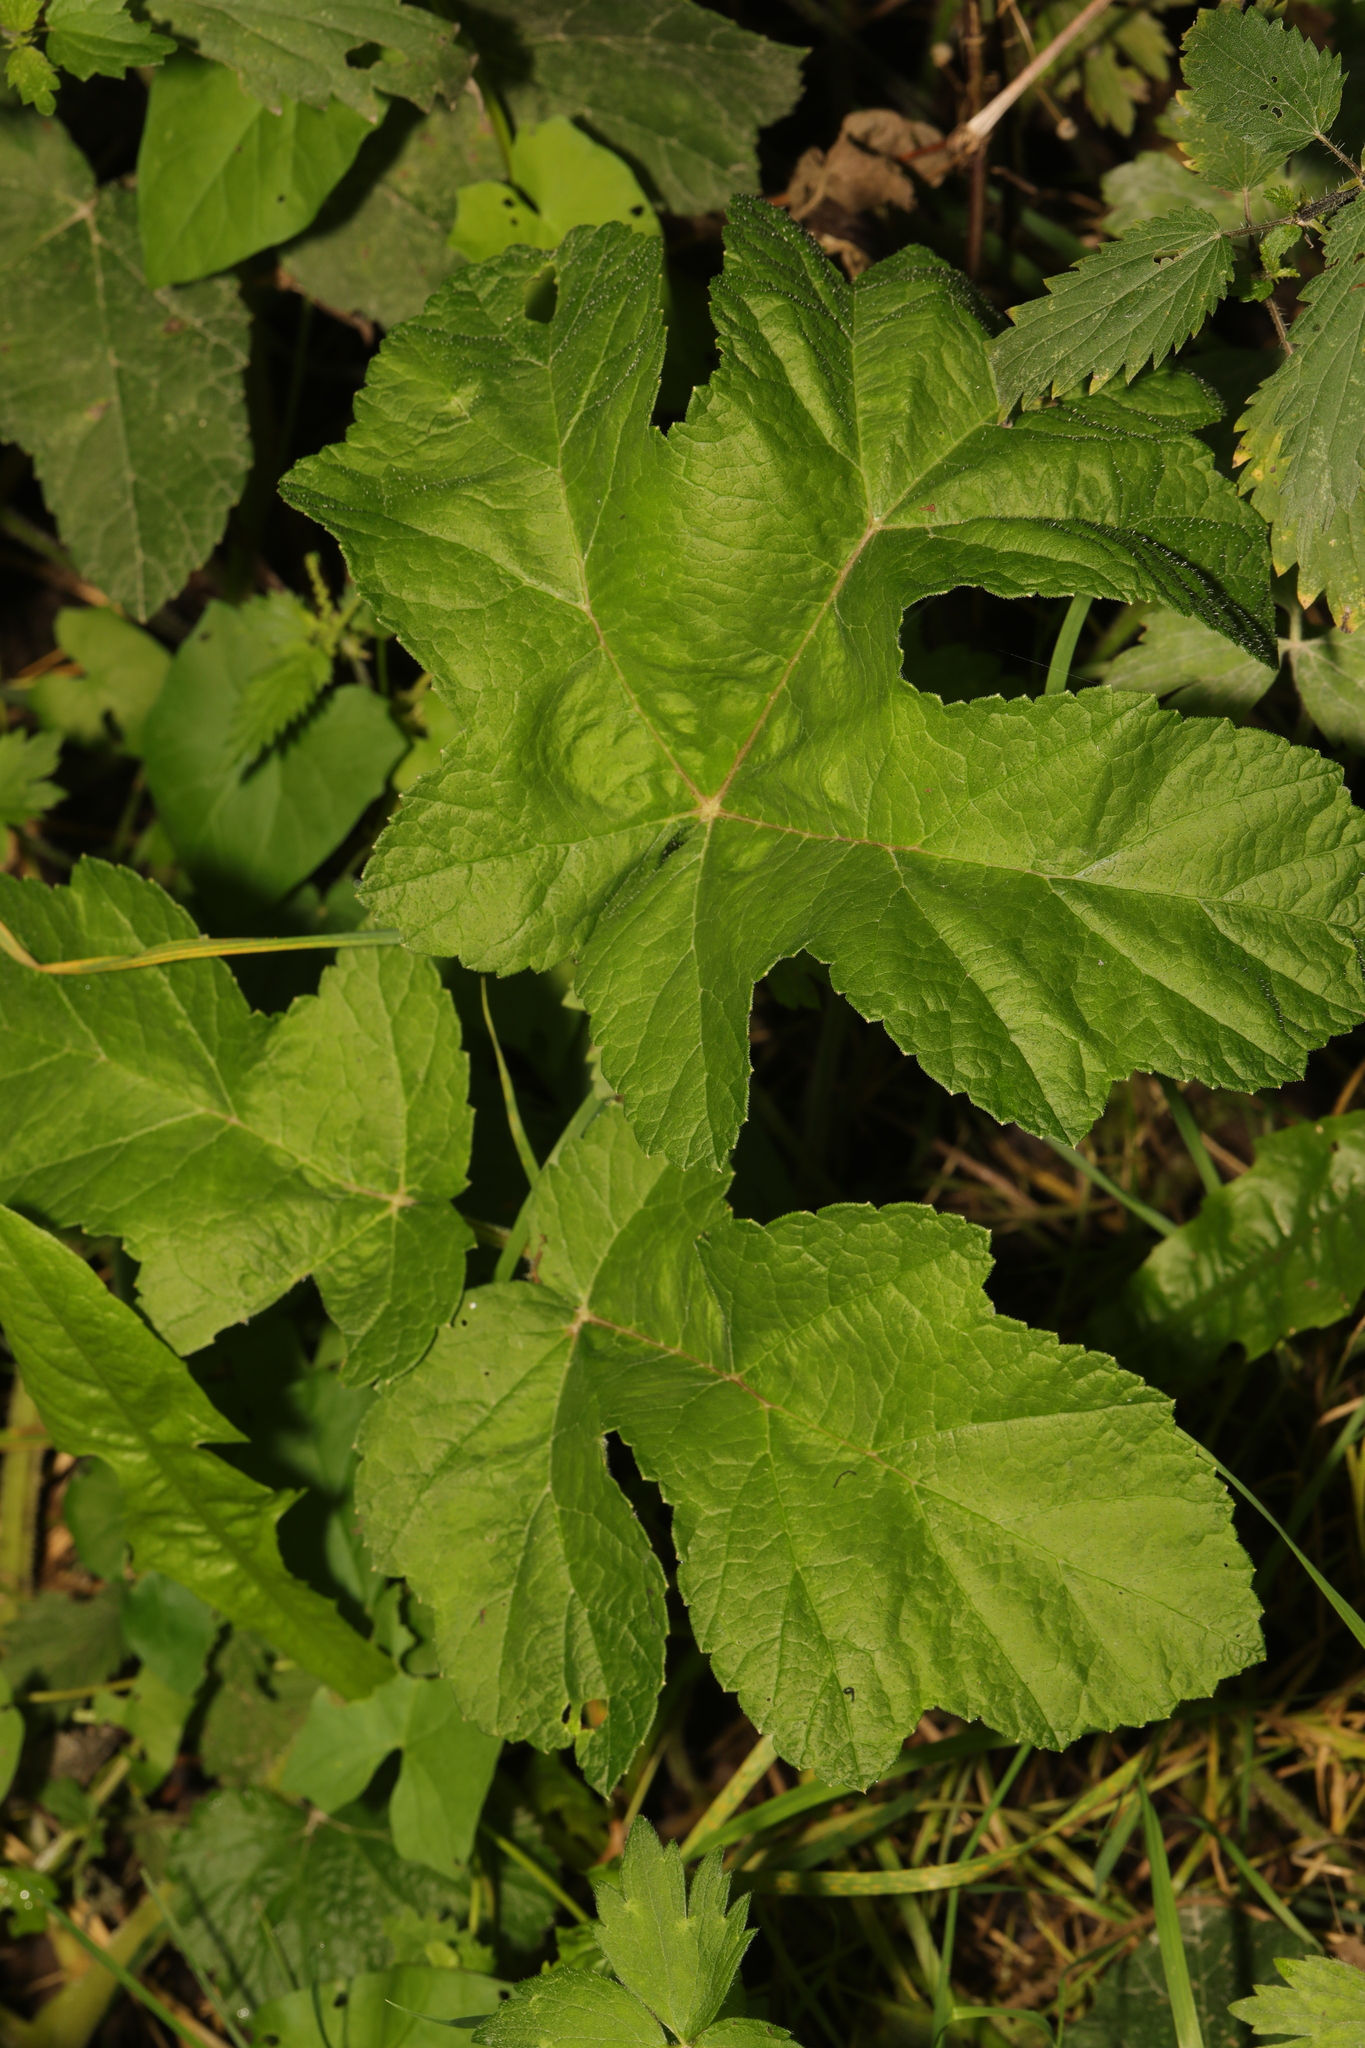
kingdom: Plantae
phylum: Tracheophyta
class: Magnoliopsida
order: Apiales
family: Apiaceae
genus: Heracleum
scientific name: Heracleum sphondylium
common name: Hogweed
